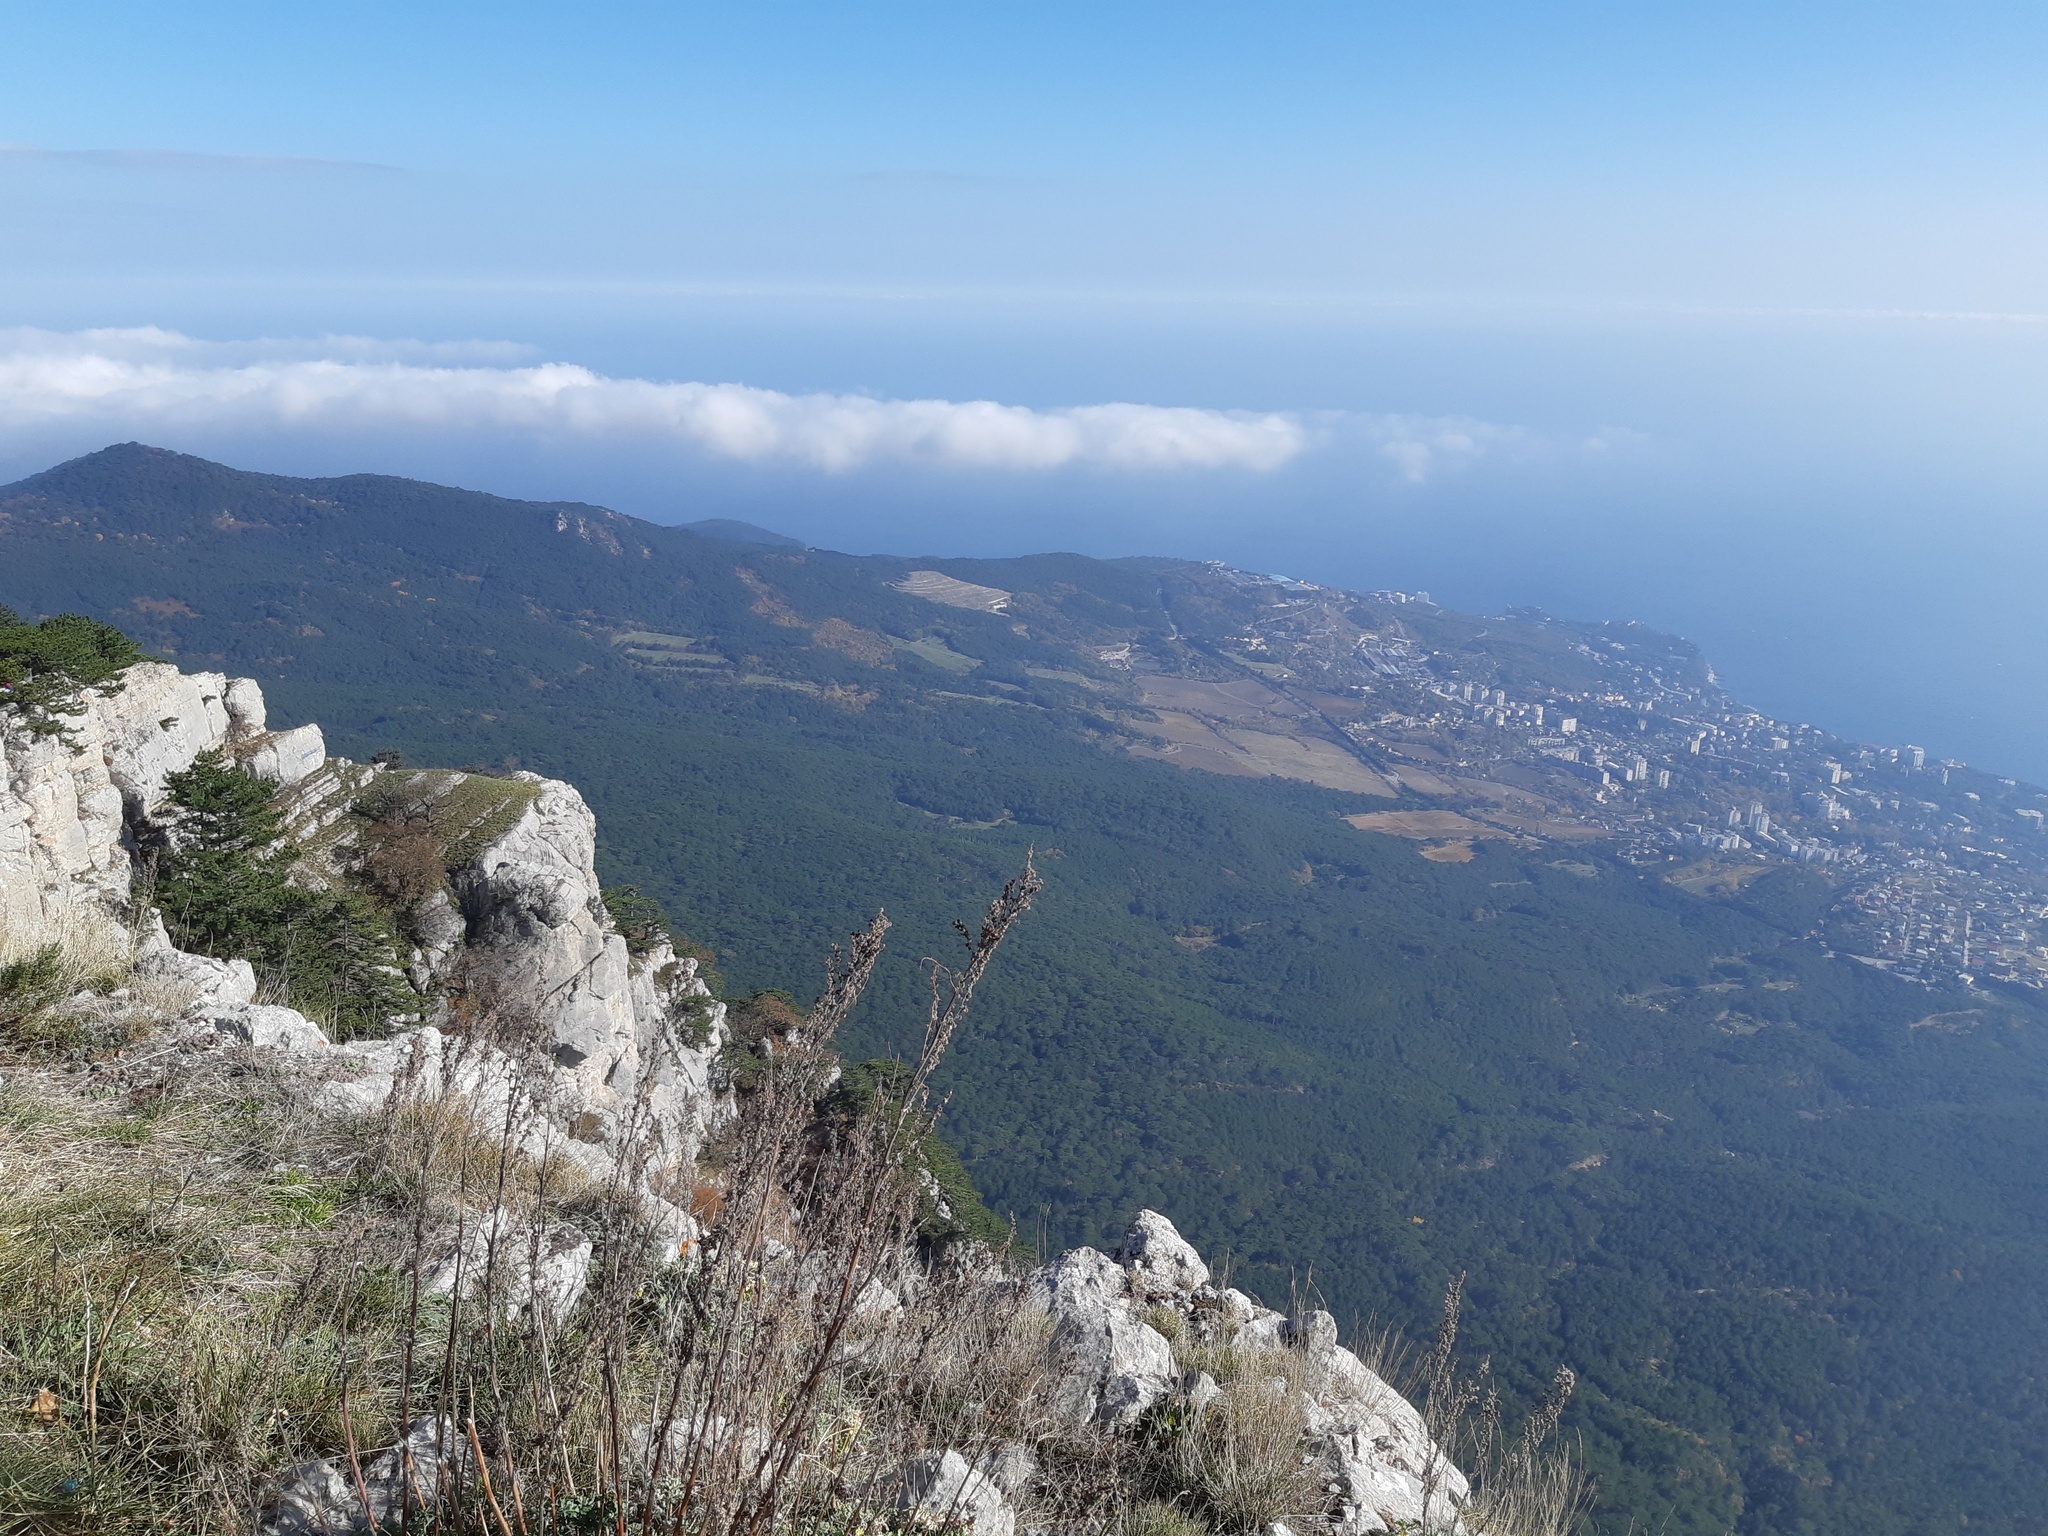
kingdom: Plantae
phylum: Tracheophyta
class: Magnoliopsida
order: Asterales
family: Asteraceae
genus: Artemisia
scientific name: Artemisia absinthium
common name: Wormwood
